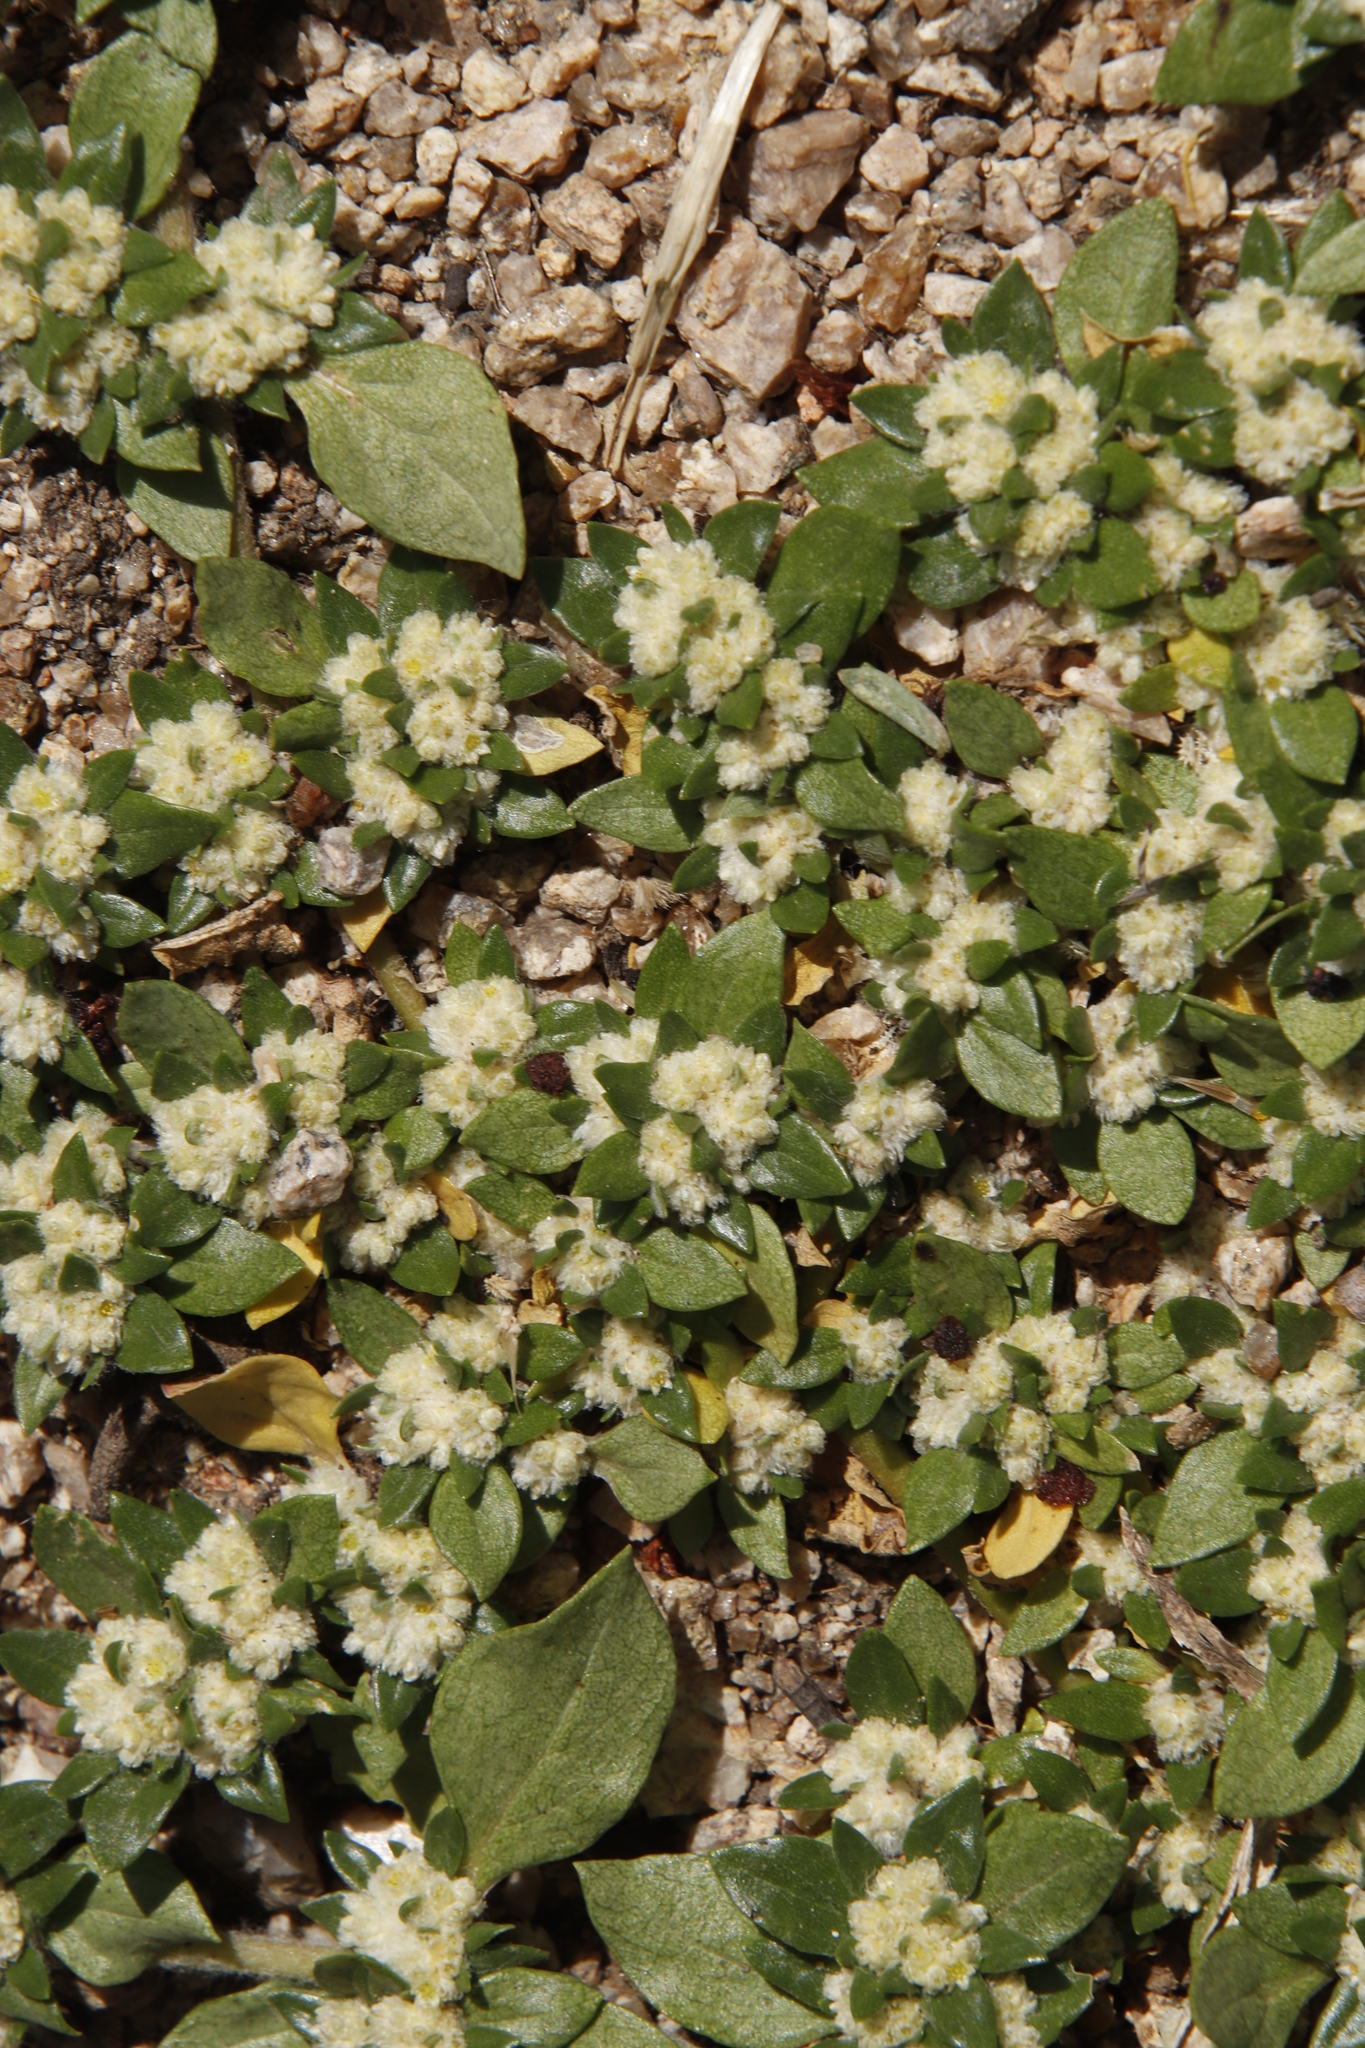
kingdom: Plantae
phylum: Tracheophyta
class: Magnoliopsida
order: Caryophyllales
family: Amaranthaceae
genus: Guilleminea
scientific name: Guilleminea densa
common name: Small matweed
